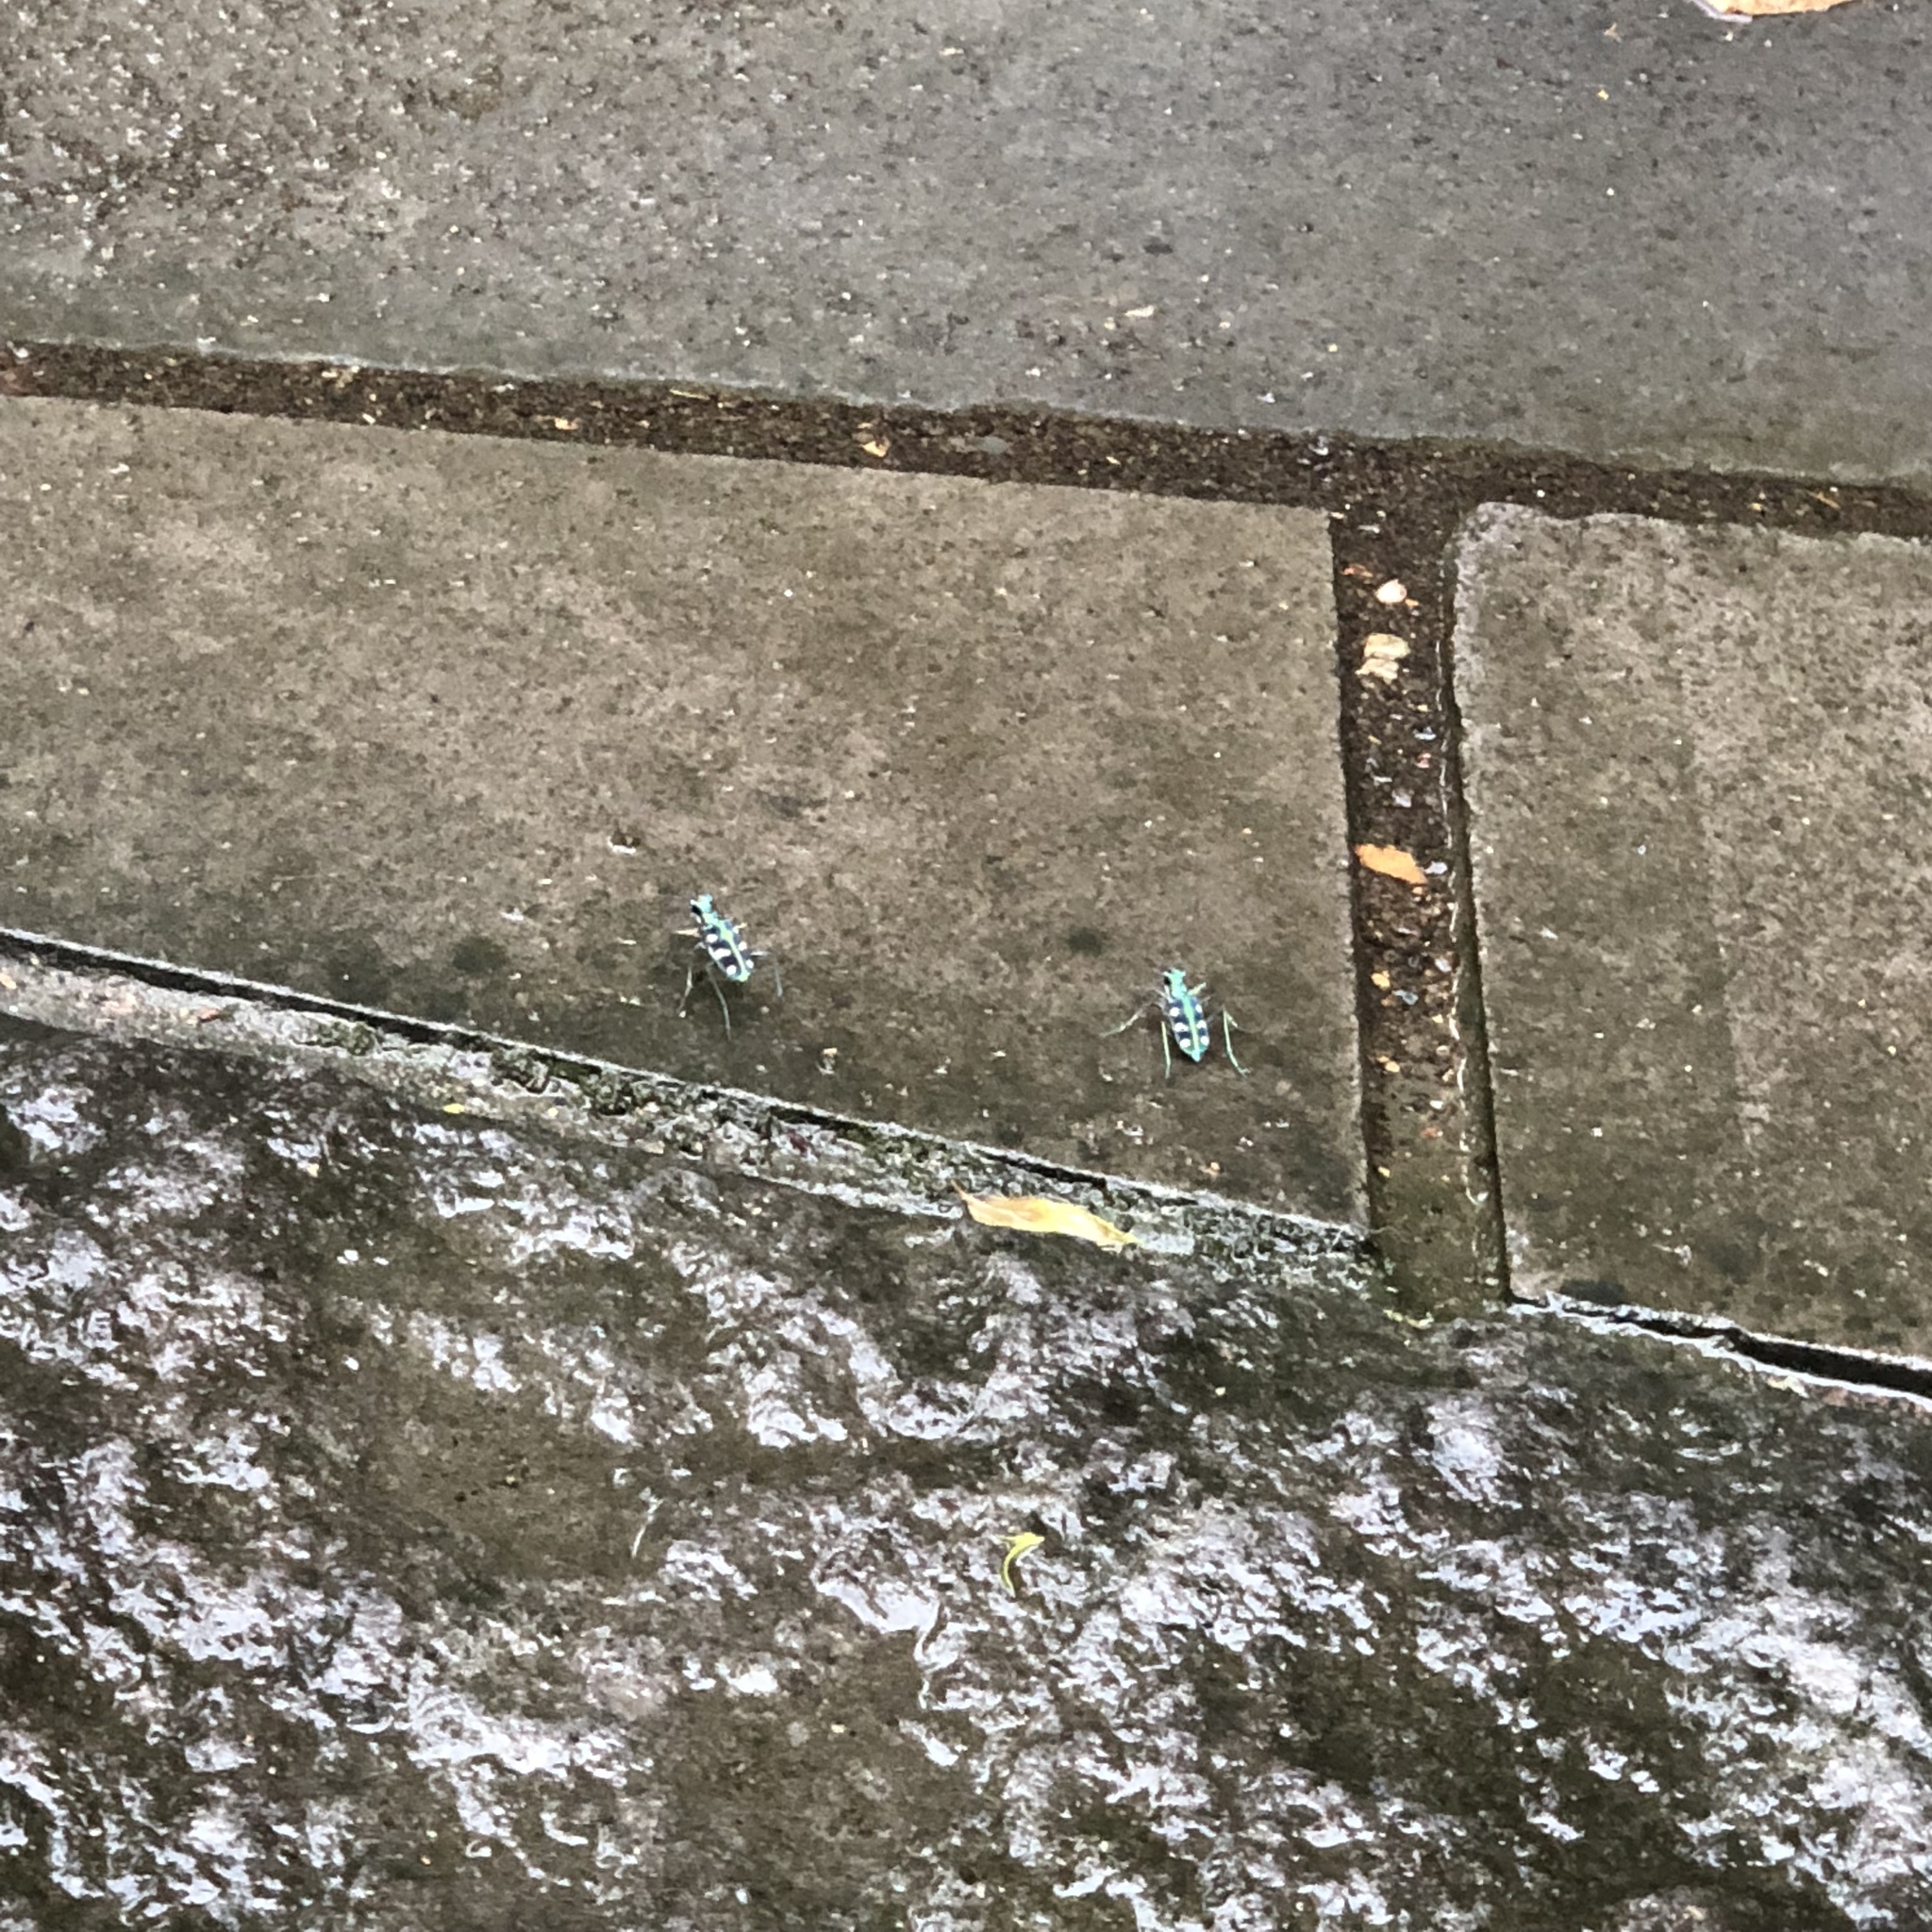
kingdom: Animalia
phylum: Arthropoda
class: Insecta
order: Coleoptera
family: Carabidae
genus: Cicindela
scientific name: Cicindela batesi
